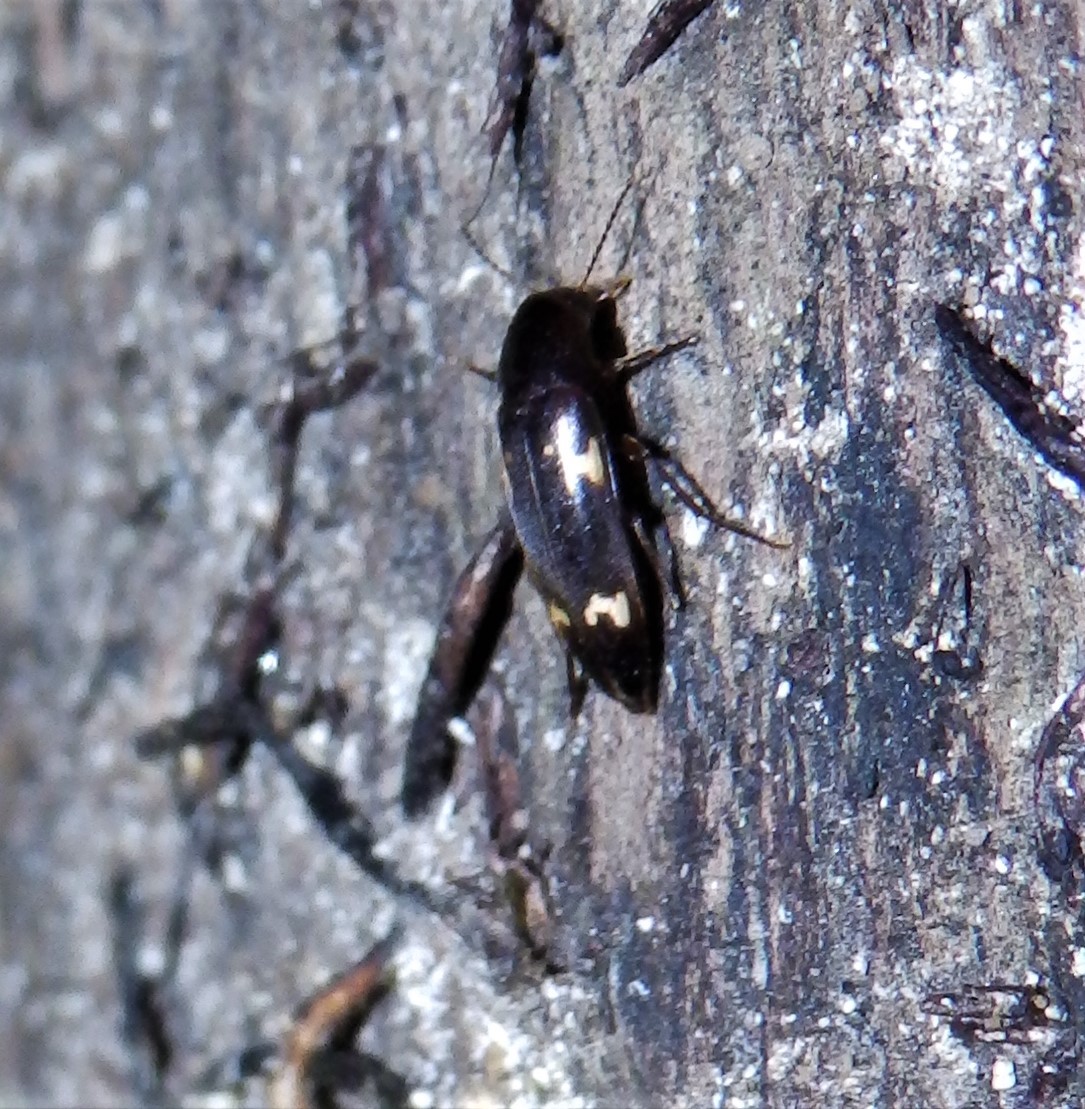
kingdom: Animalia
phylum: Arthropoda
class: Insecta
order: Coleoptera
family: Melandryidae
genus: Dircaea
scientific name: Dircaea liturata
